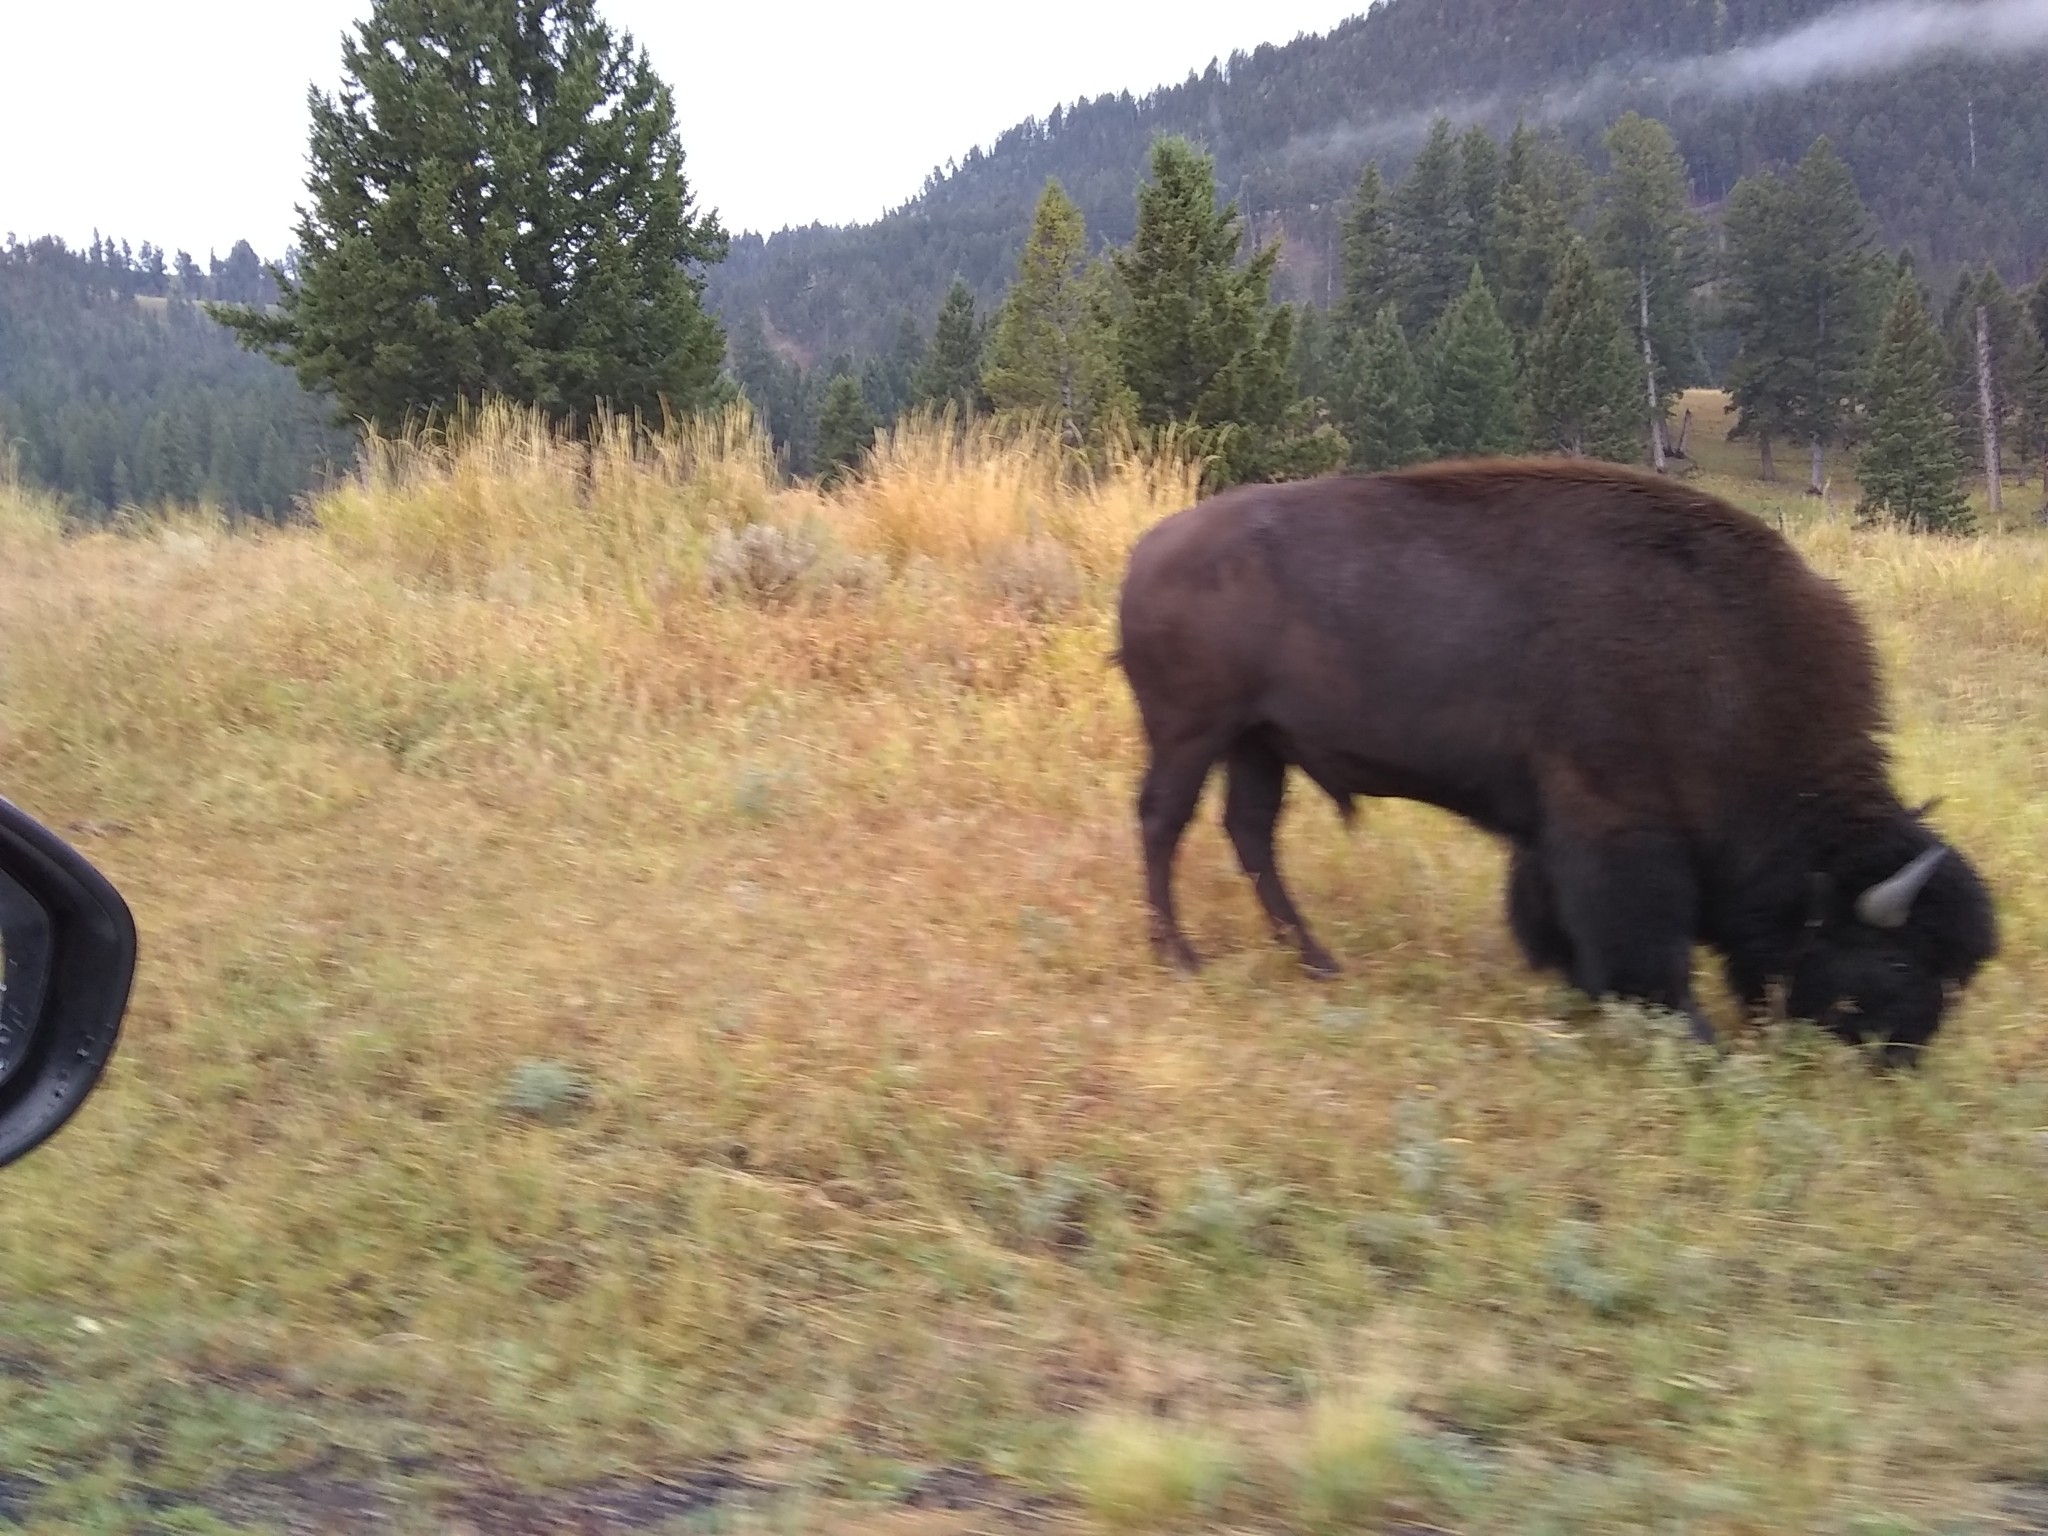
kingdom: Animalia
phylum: Chordata
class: Mammalia
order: Artiodactyla
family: Bovidae
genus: Bison
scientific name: Bison bison
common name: American bison
